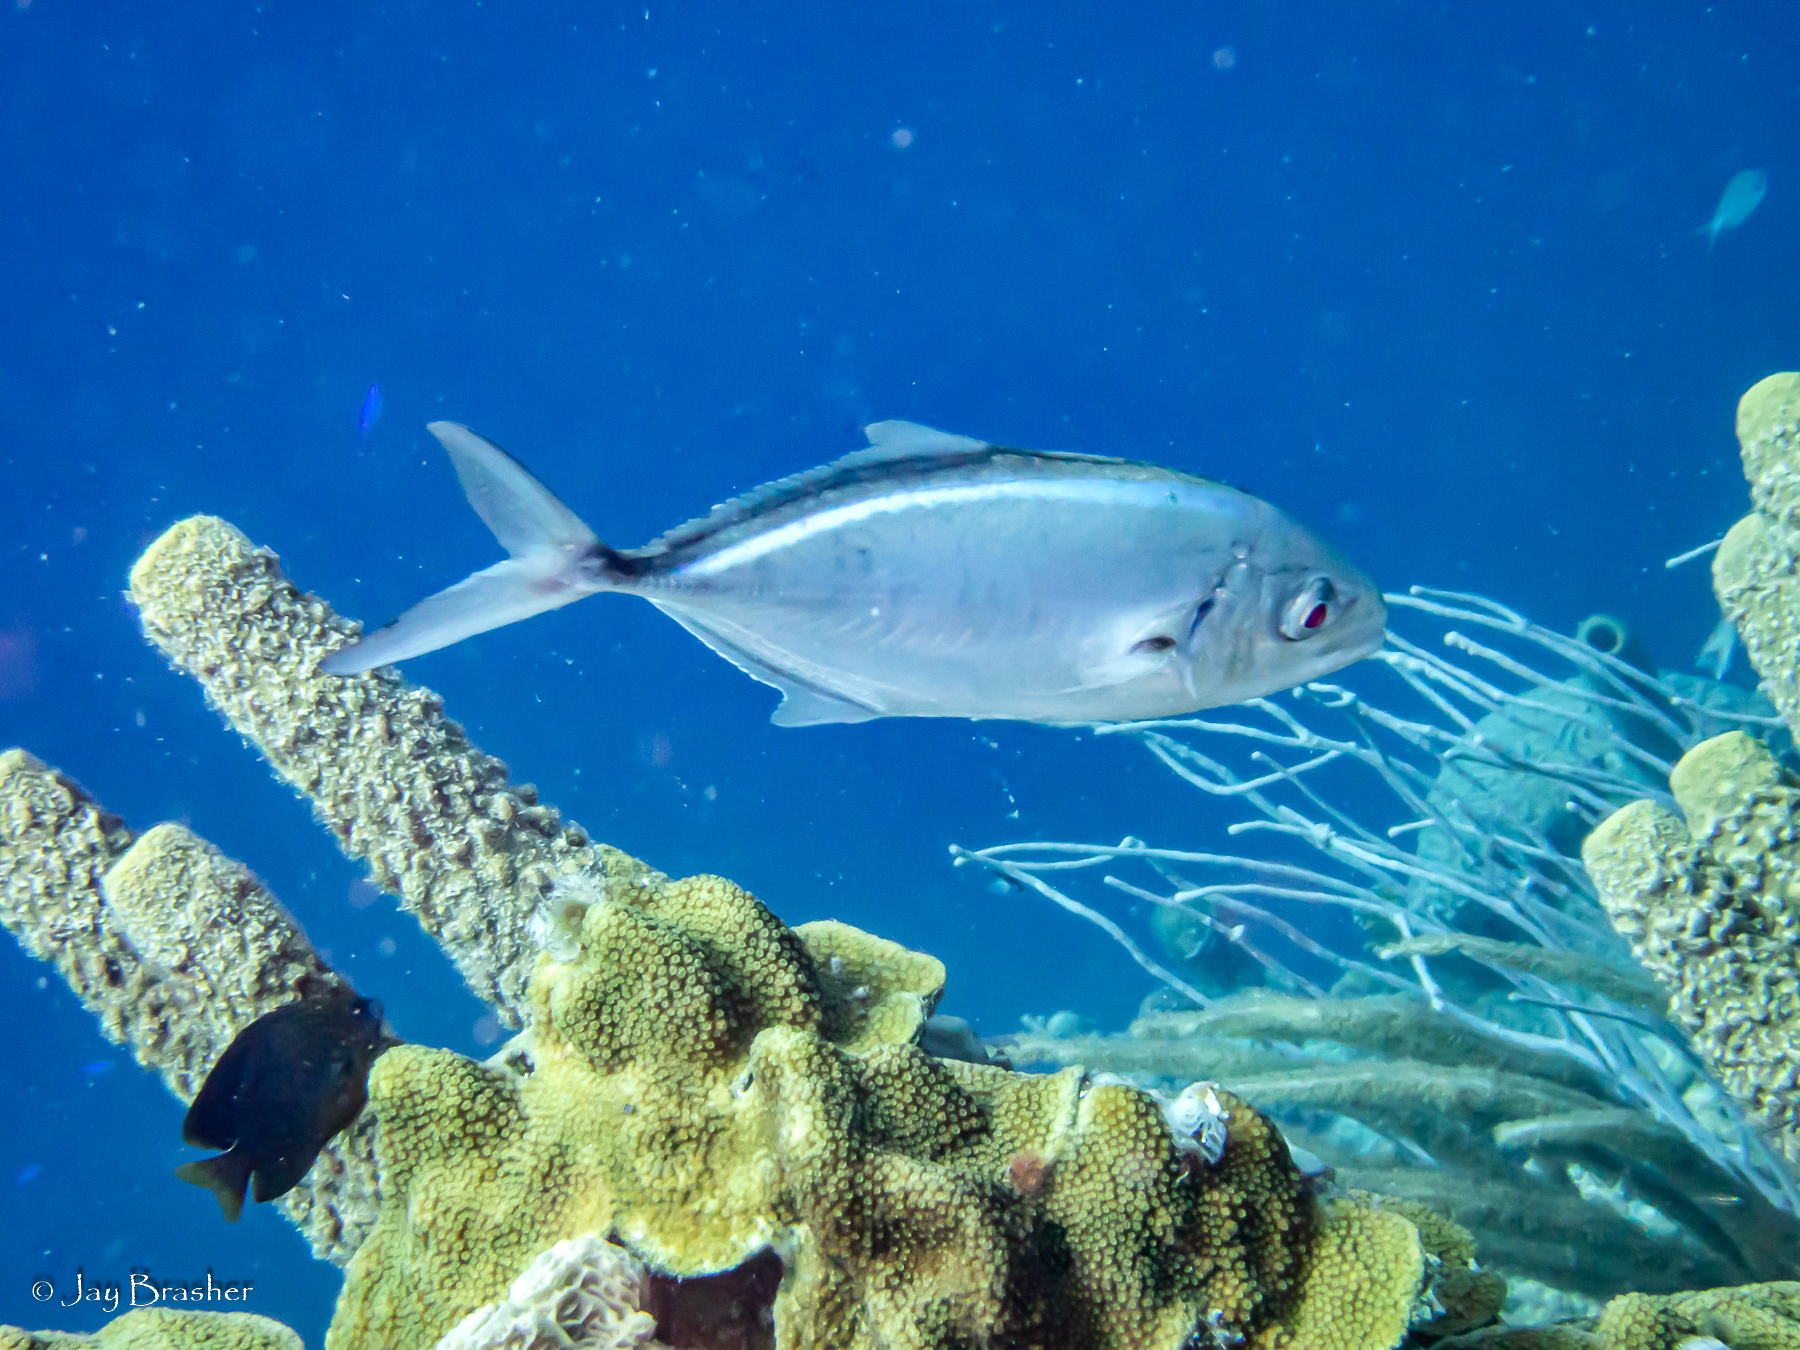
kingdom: Animalia
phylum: Porifera
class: Demospongiae
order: Verongiida
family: Aplysinidae
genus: Aplysina
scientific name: Aplysina archeri
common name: Stove-pipe sponge
